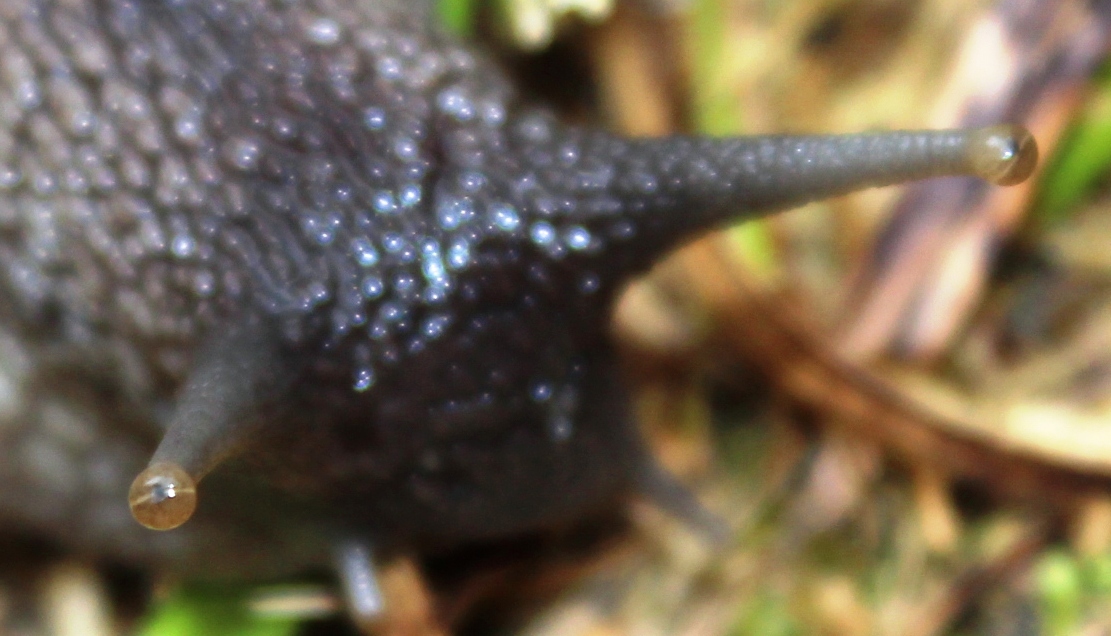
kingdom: Animalia
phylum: Mollusca
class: Gastropoda
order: Stylommatophora
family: Achatinidae
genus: Cochlitoma
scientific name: Cochlitoma ustulata
